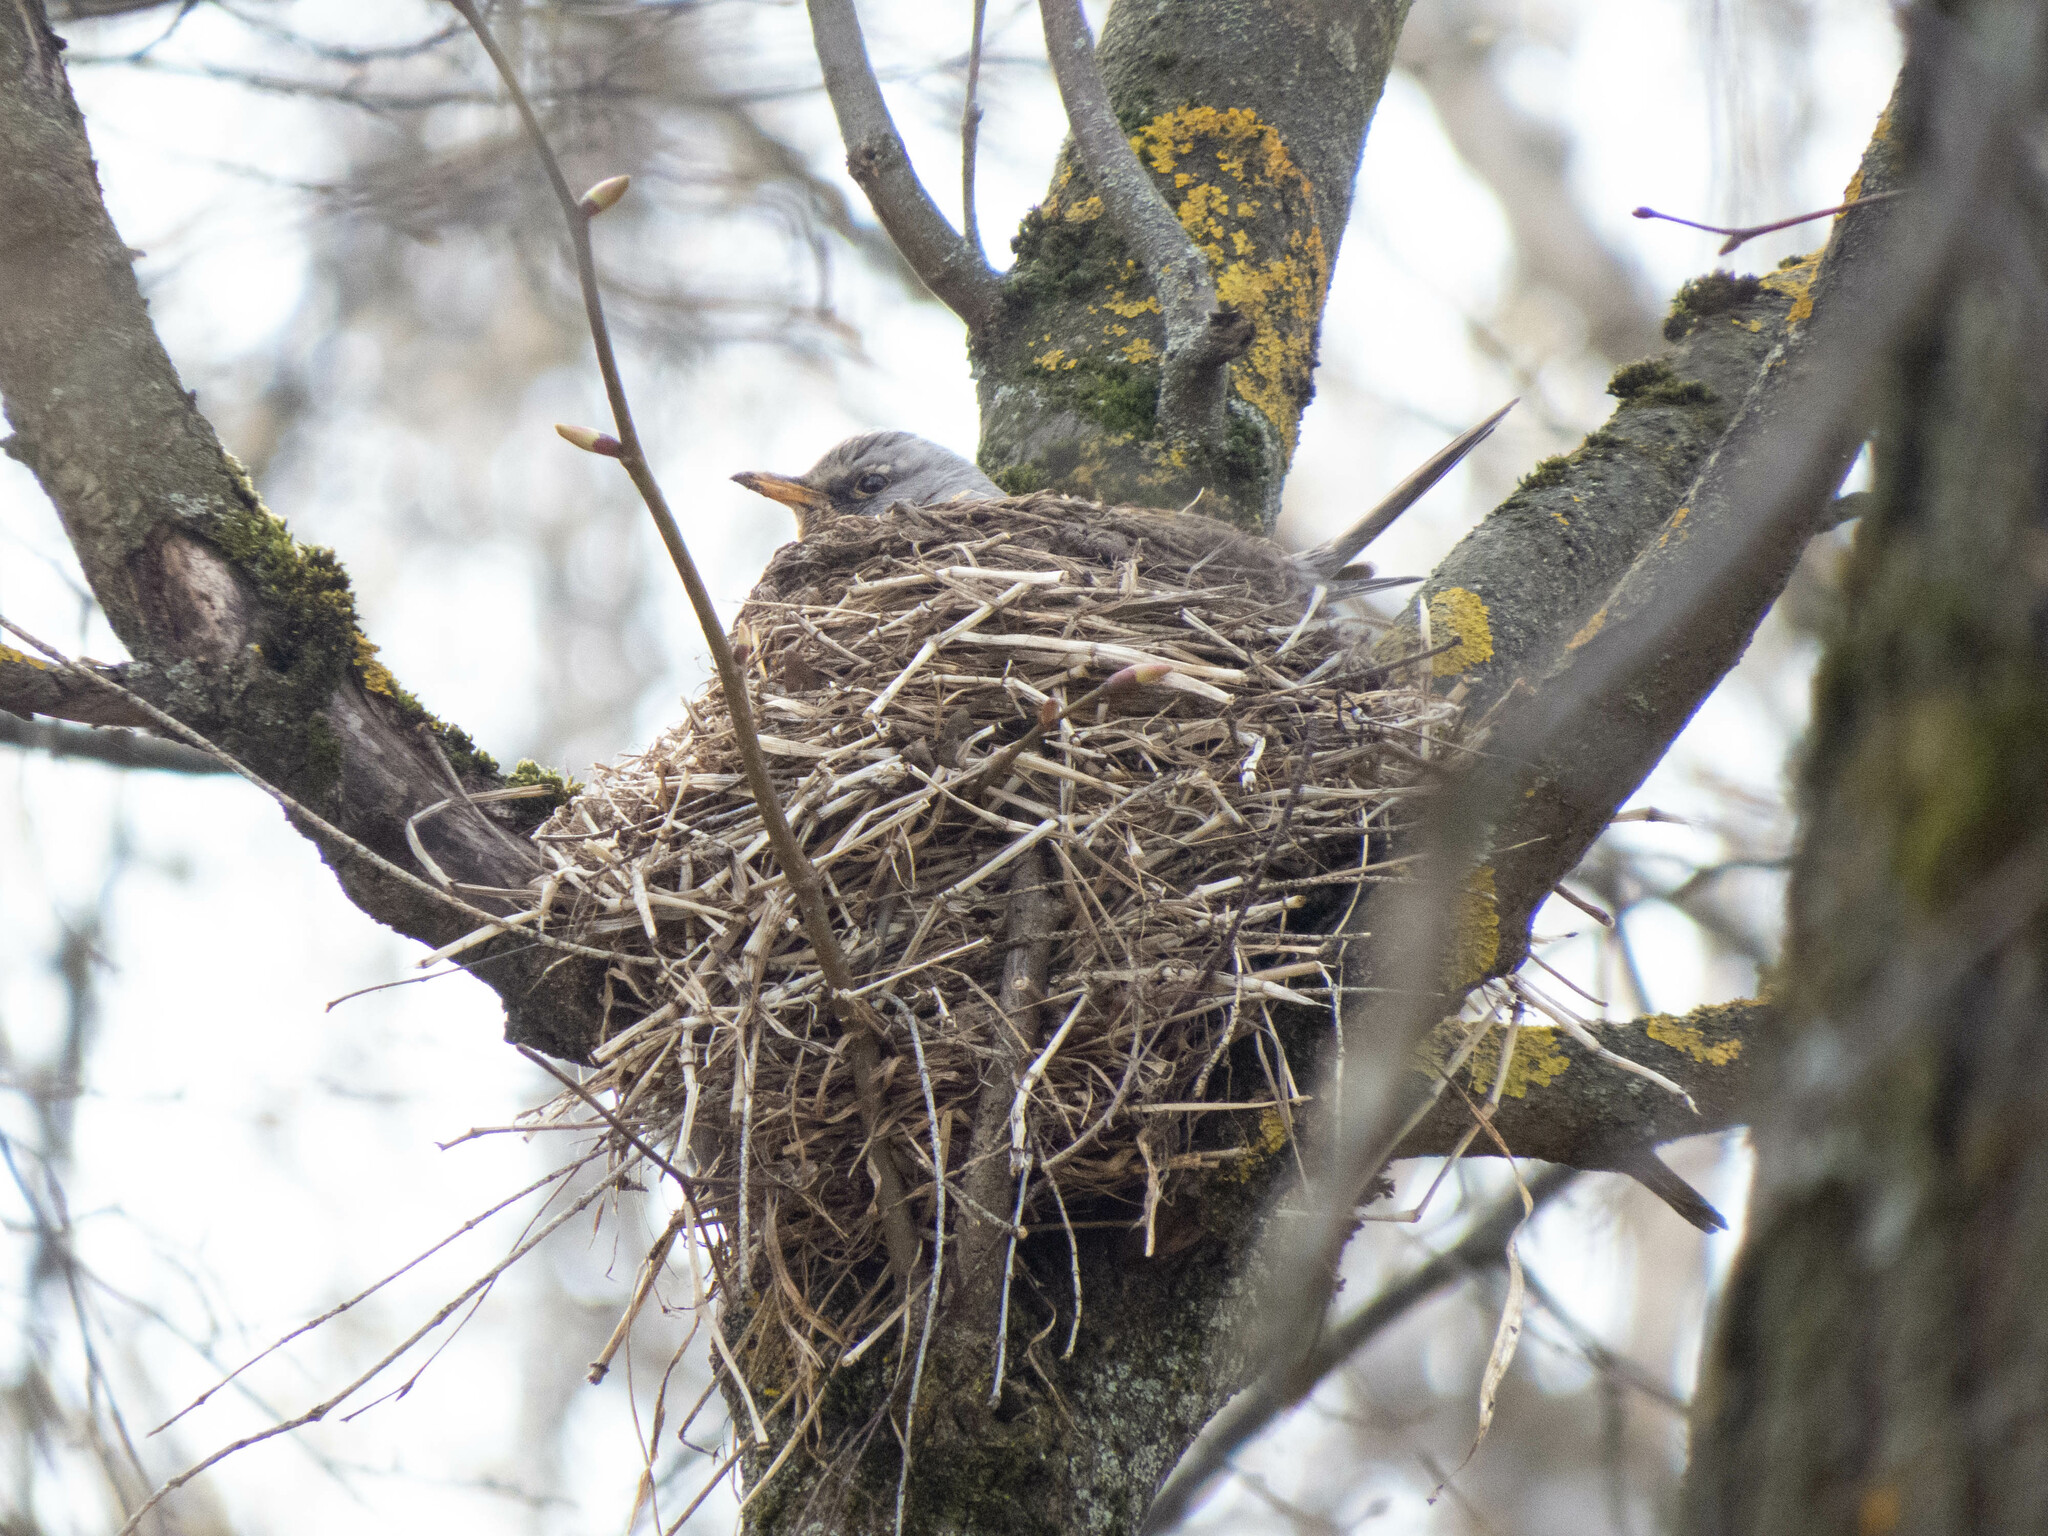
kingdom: Animalia
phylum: Chordata
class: Aves
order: Passeriformes
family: Turdidae
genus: Turdus
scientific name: Turdus pilaris
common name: Fieldfare
